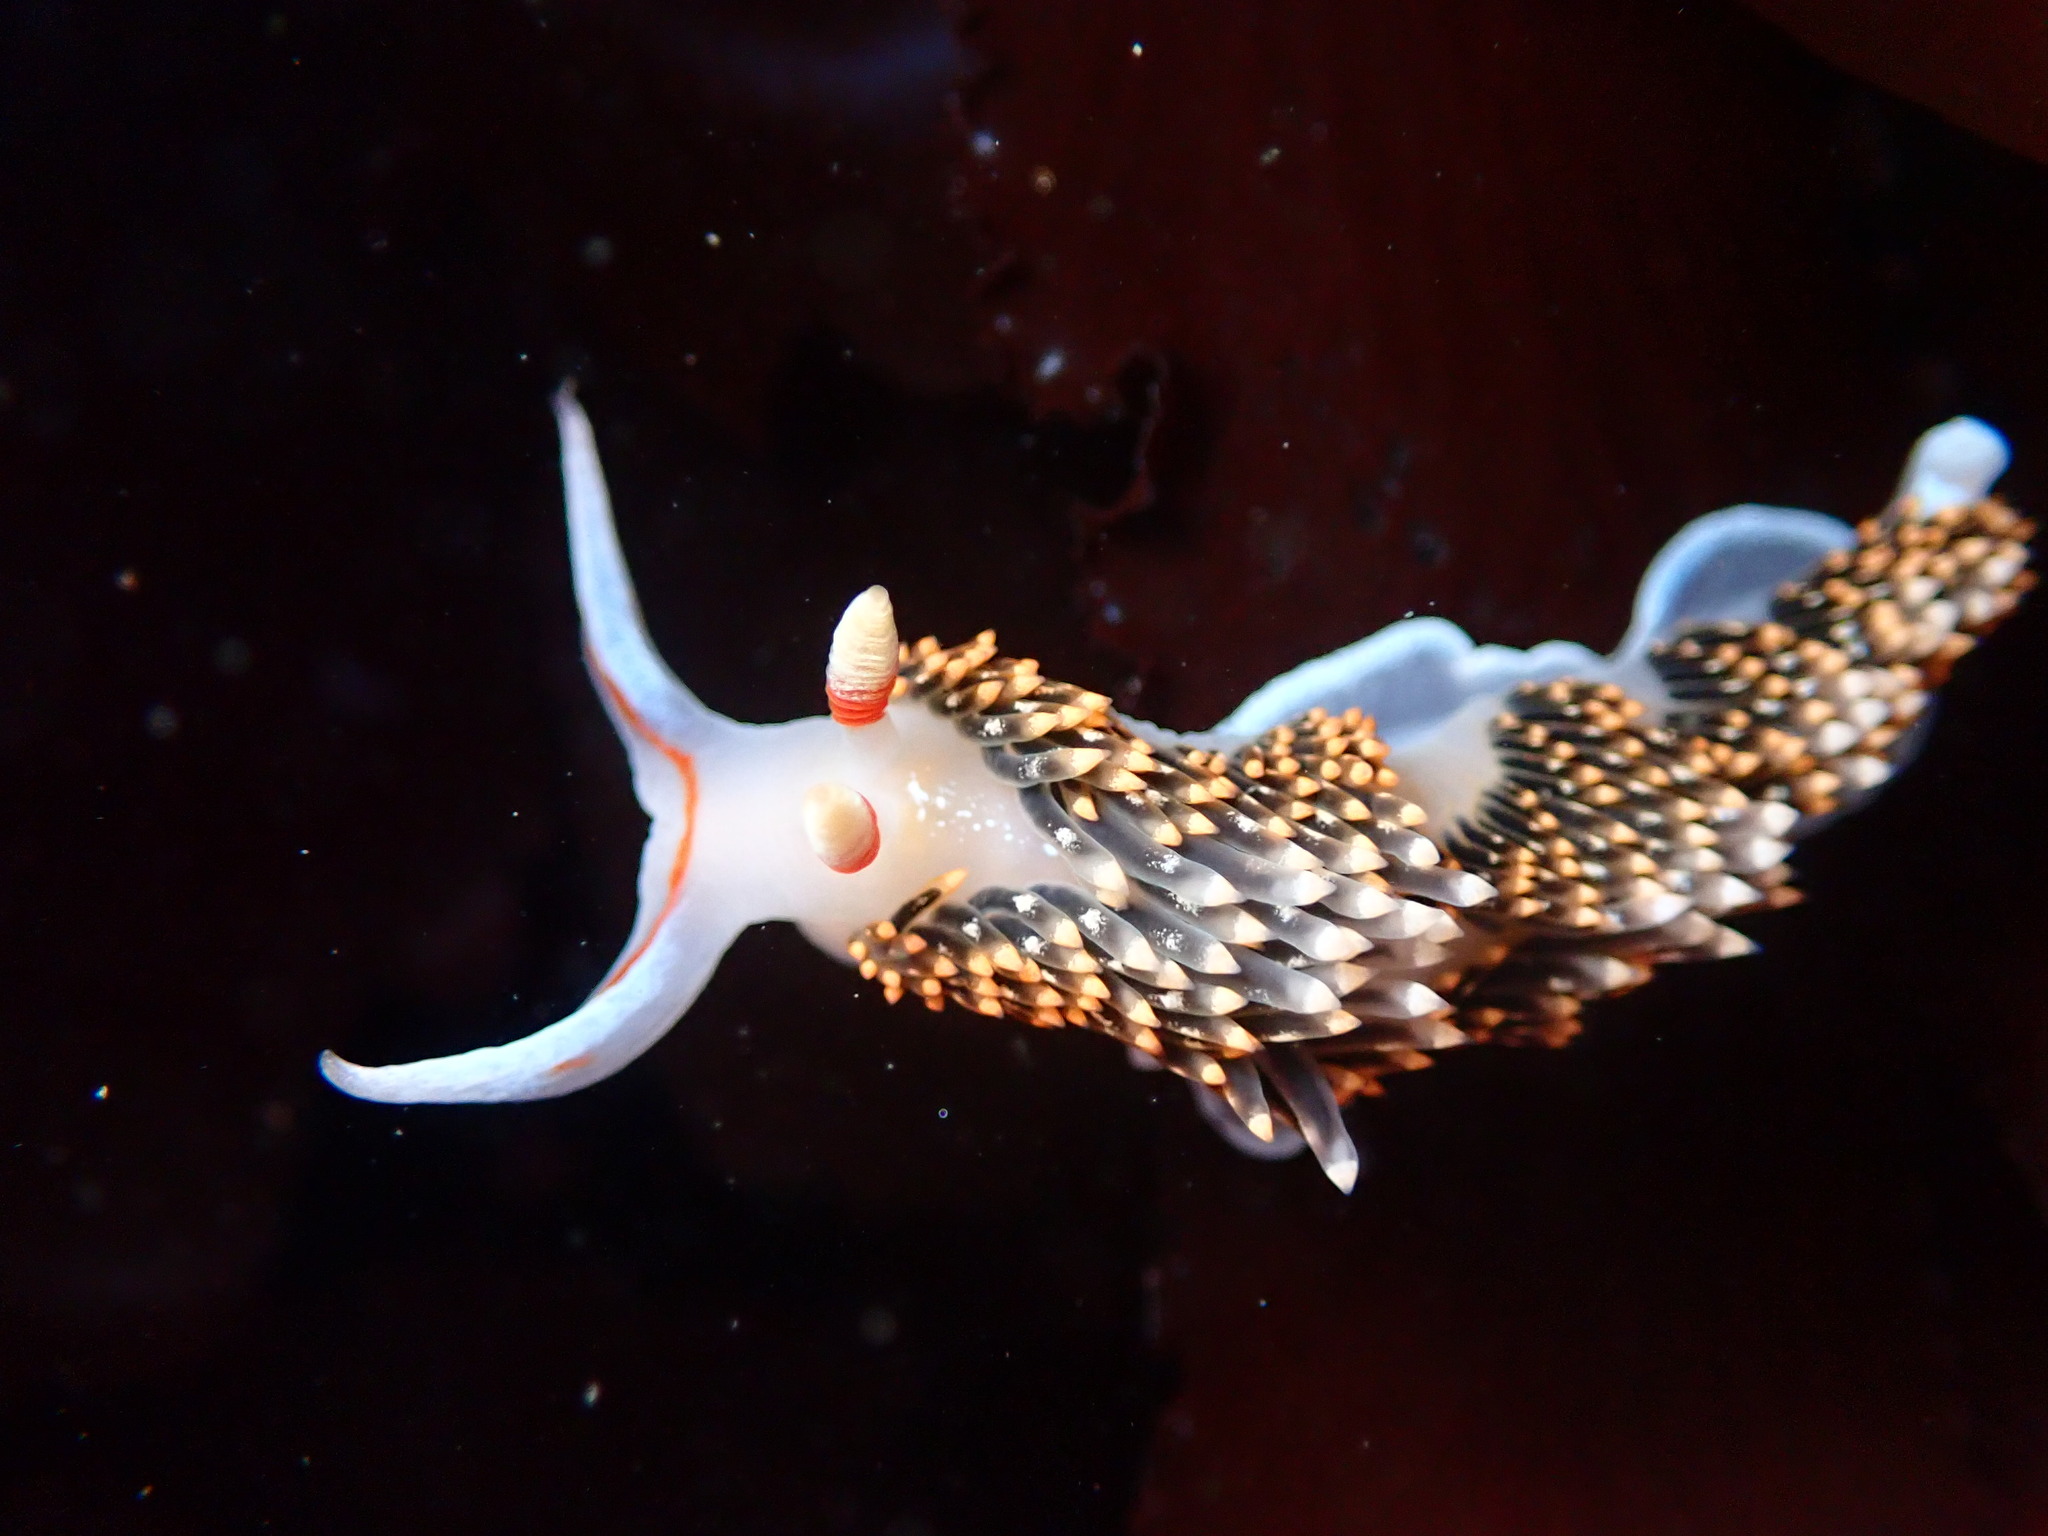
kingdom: Animalia
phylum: Mollusca
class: Gastropoda
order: Nudibranchia
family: Facelinidae
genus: Phidiana
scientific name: Phidiana hiltoni
